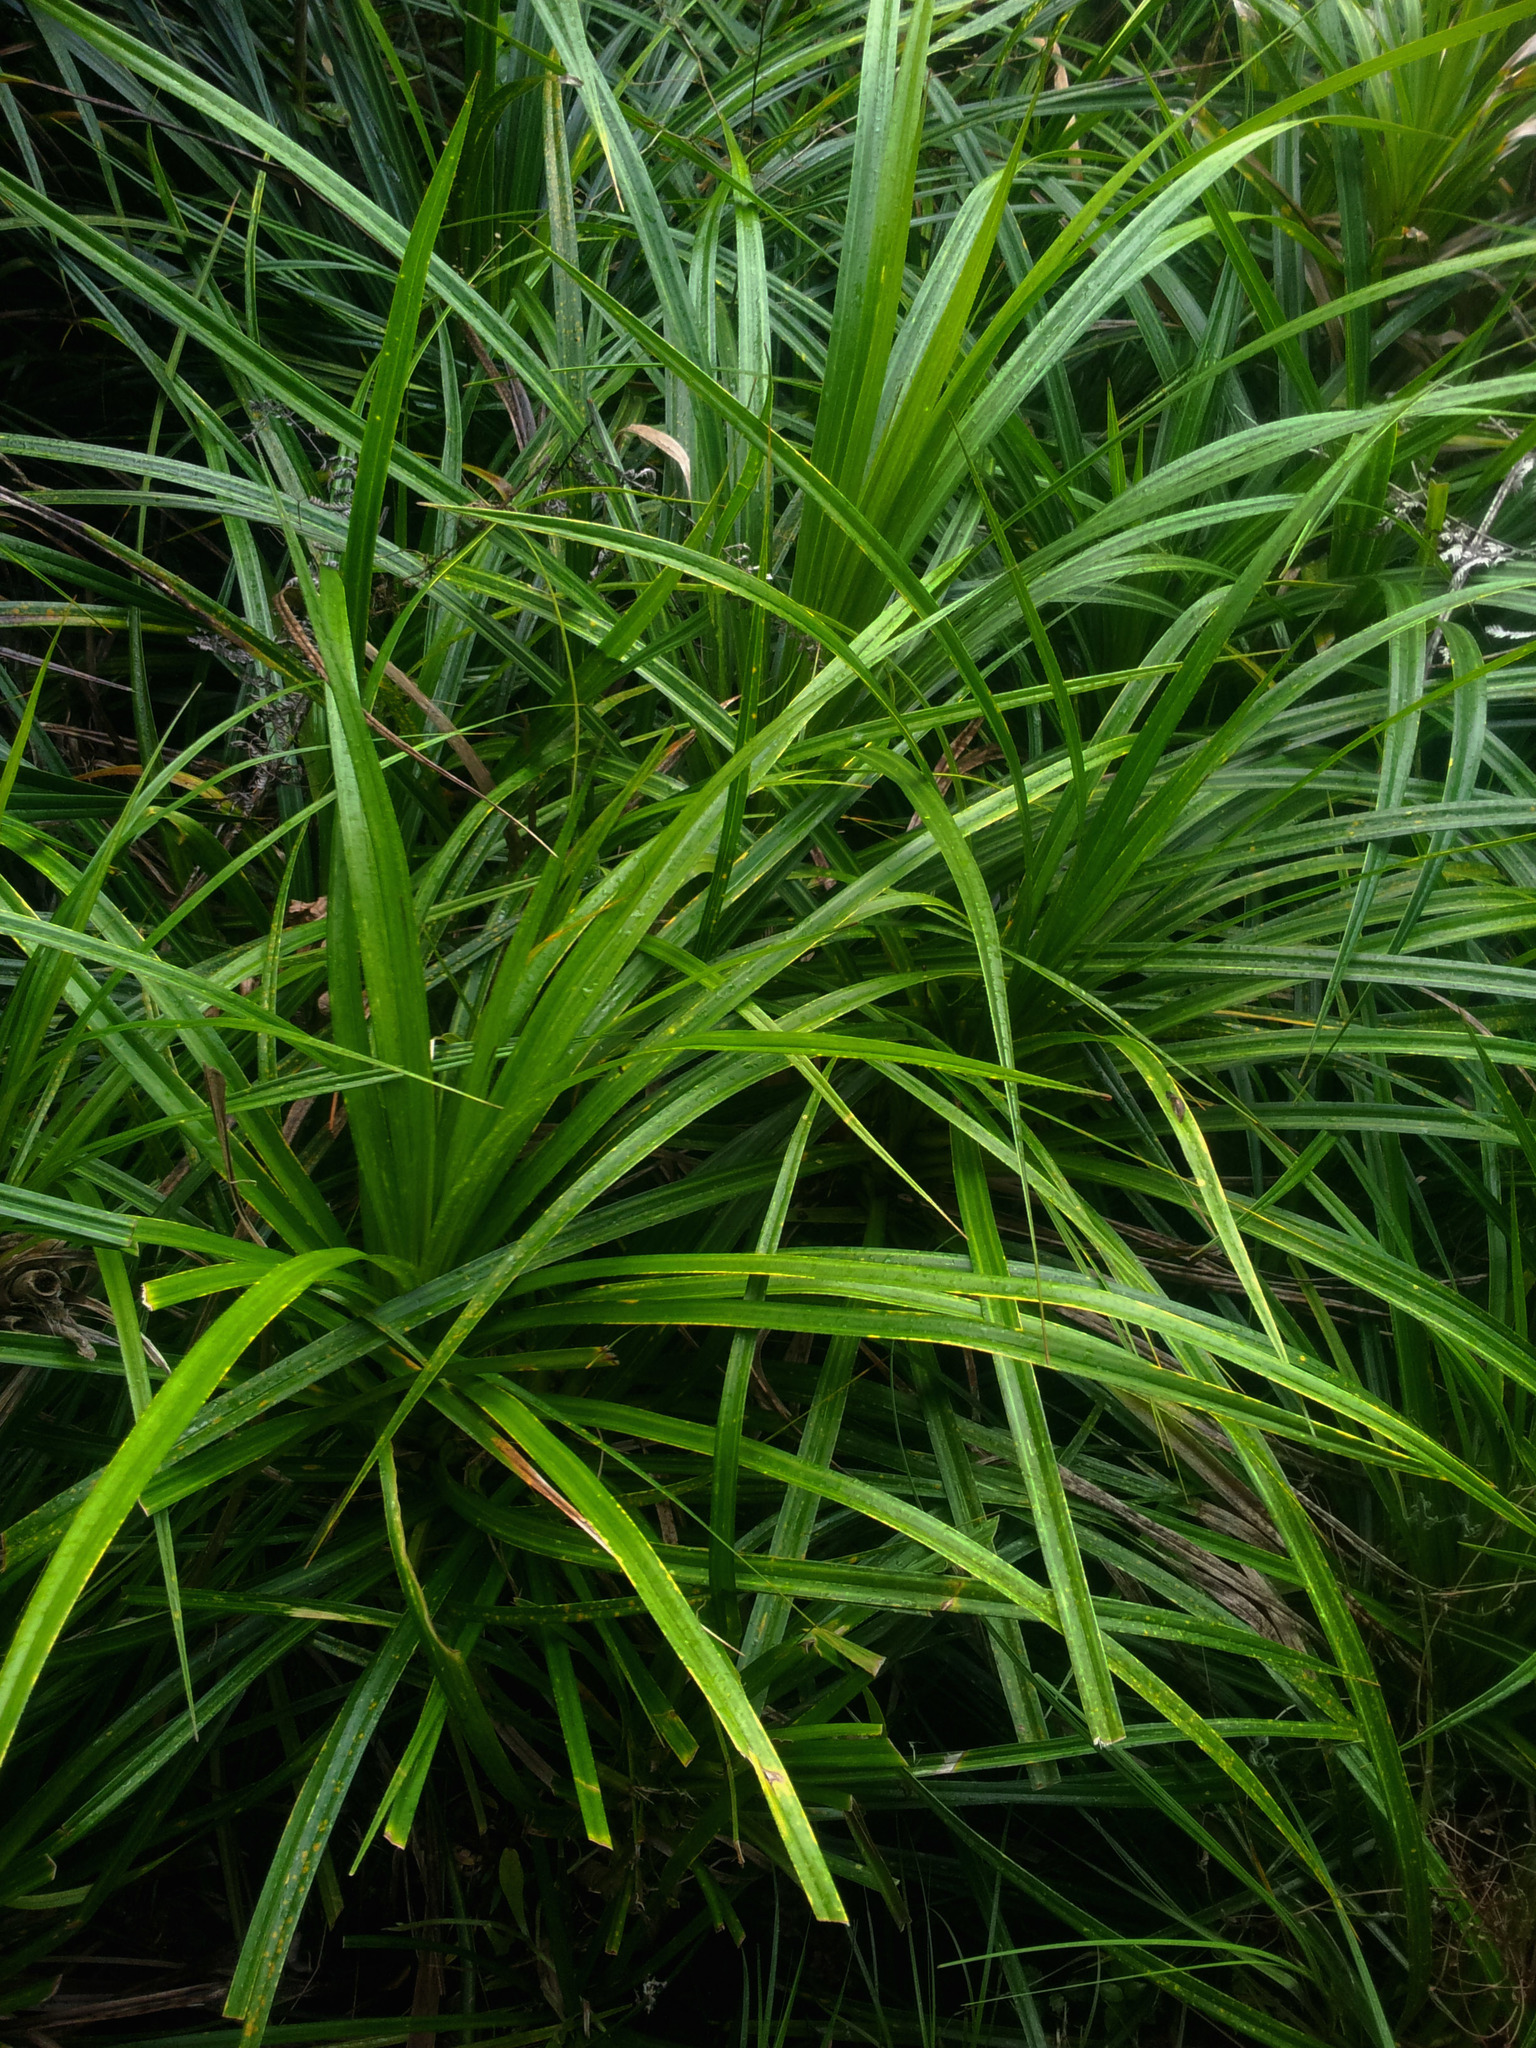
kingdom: Plantae
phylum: Tracheophyta
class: Liliopsida
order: Pandanales
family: Pandanaceae
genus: Freycinetia
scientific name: Freycinetia banksii
